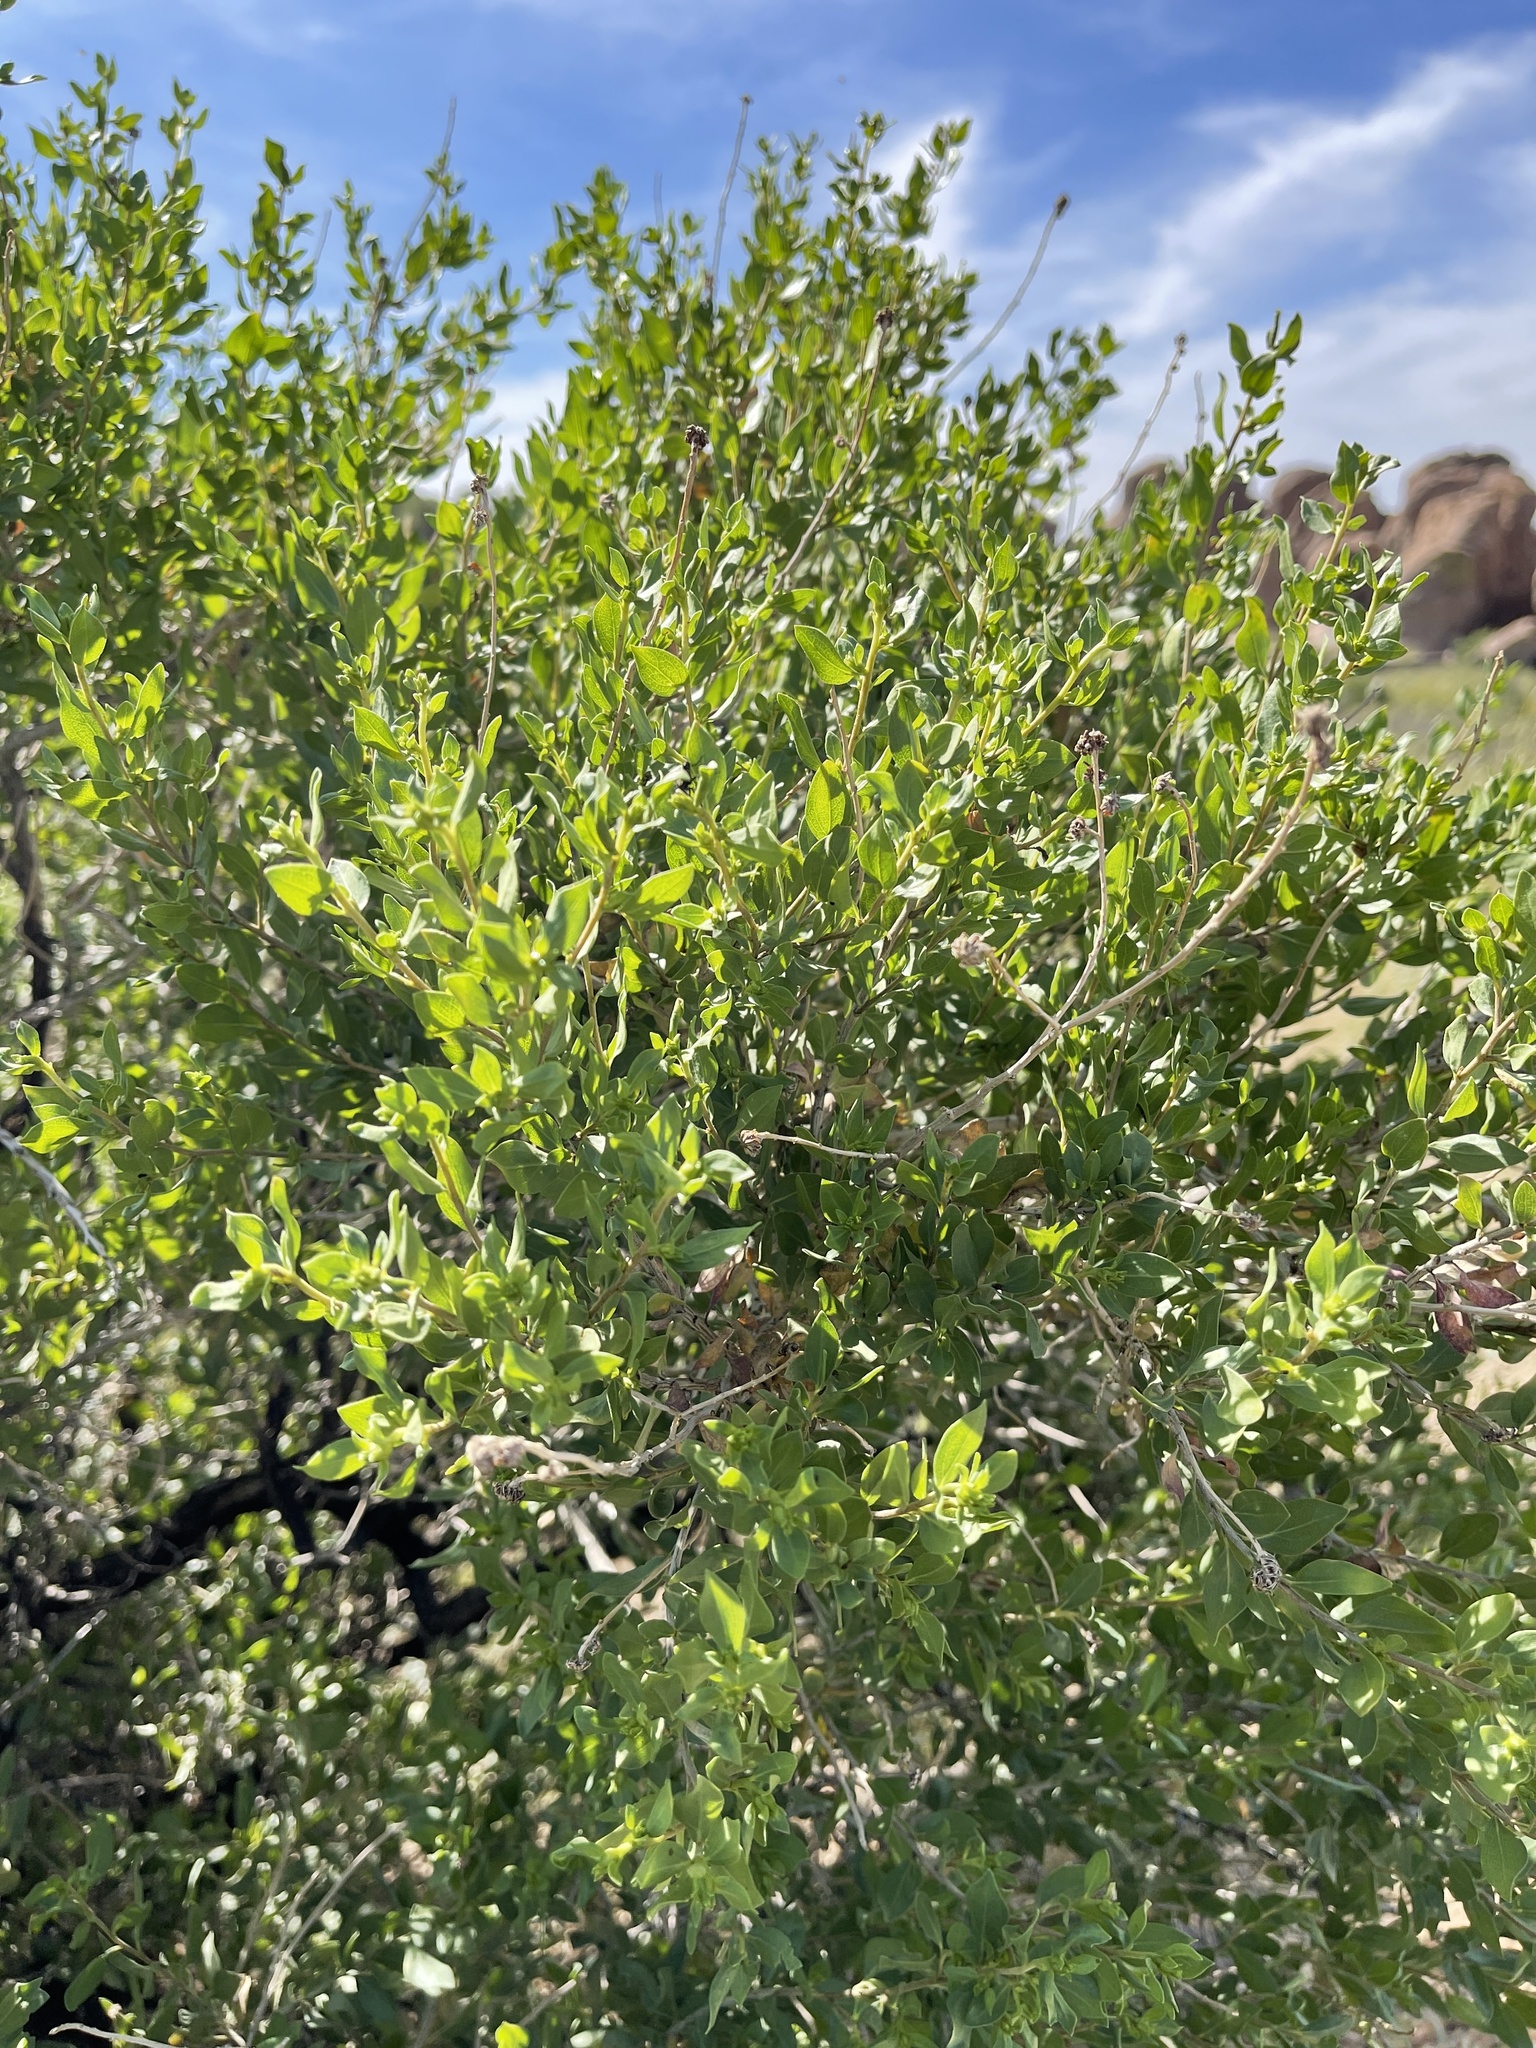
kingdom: Plantae
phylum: Tracheophyta
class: Magnoliopsida
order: Asterales
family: Asteraceae
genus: Flourensia
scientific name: Flourensia cernua
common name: Varnishbush
